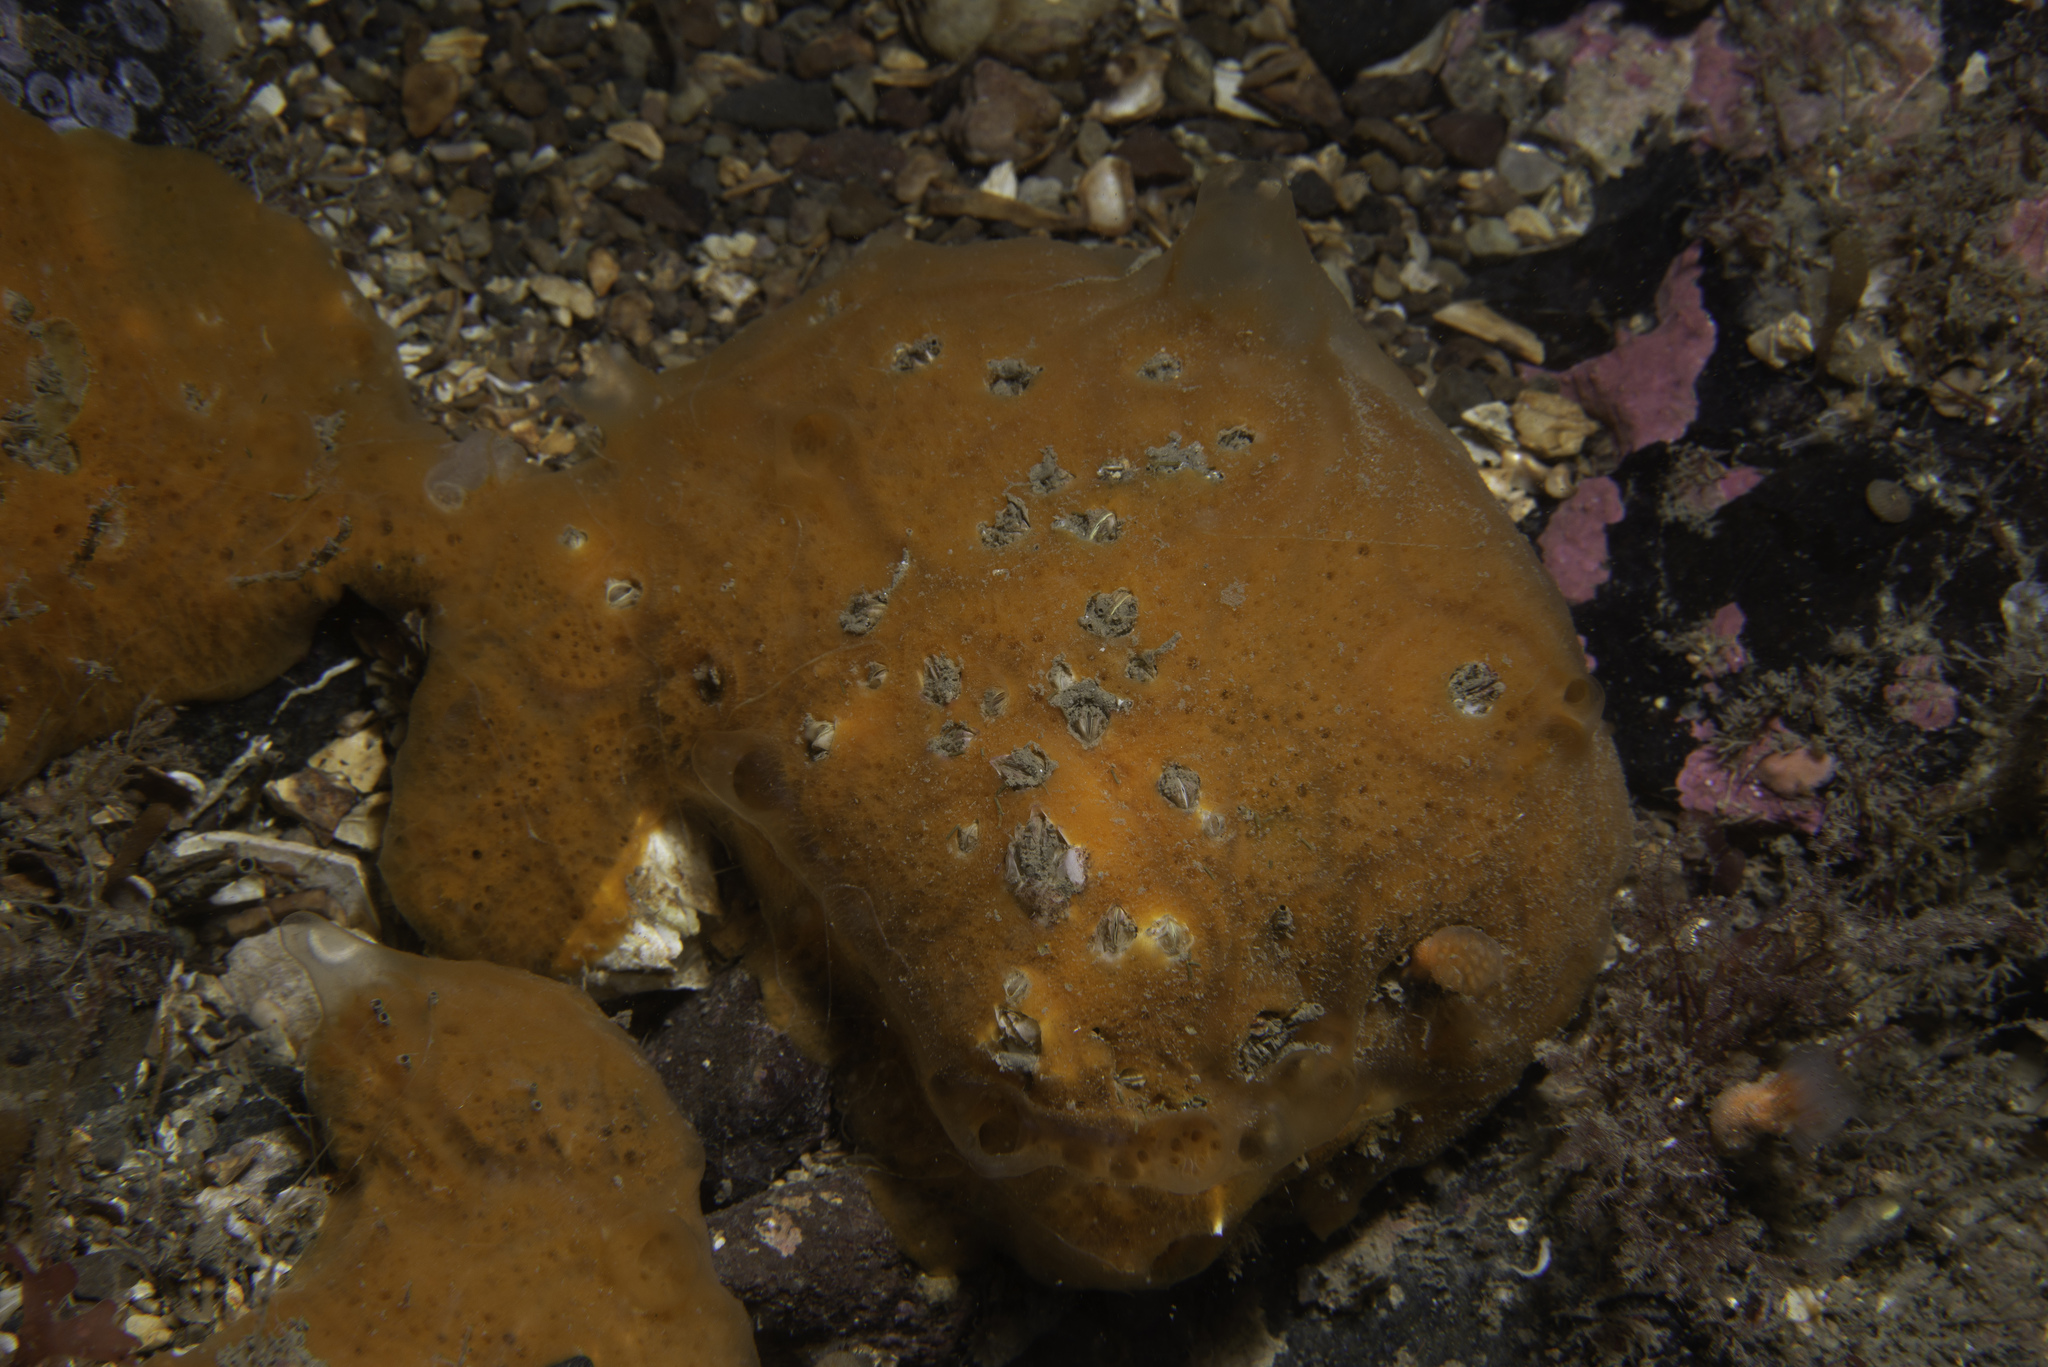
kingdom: Animalia
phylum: Porifera
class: Demospongiae
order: Poecilosclerida
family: Mycalidae
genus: Mycale
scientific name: Mycale subclavata
